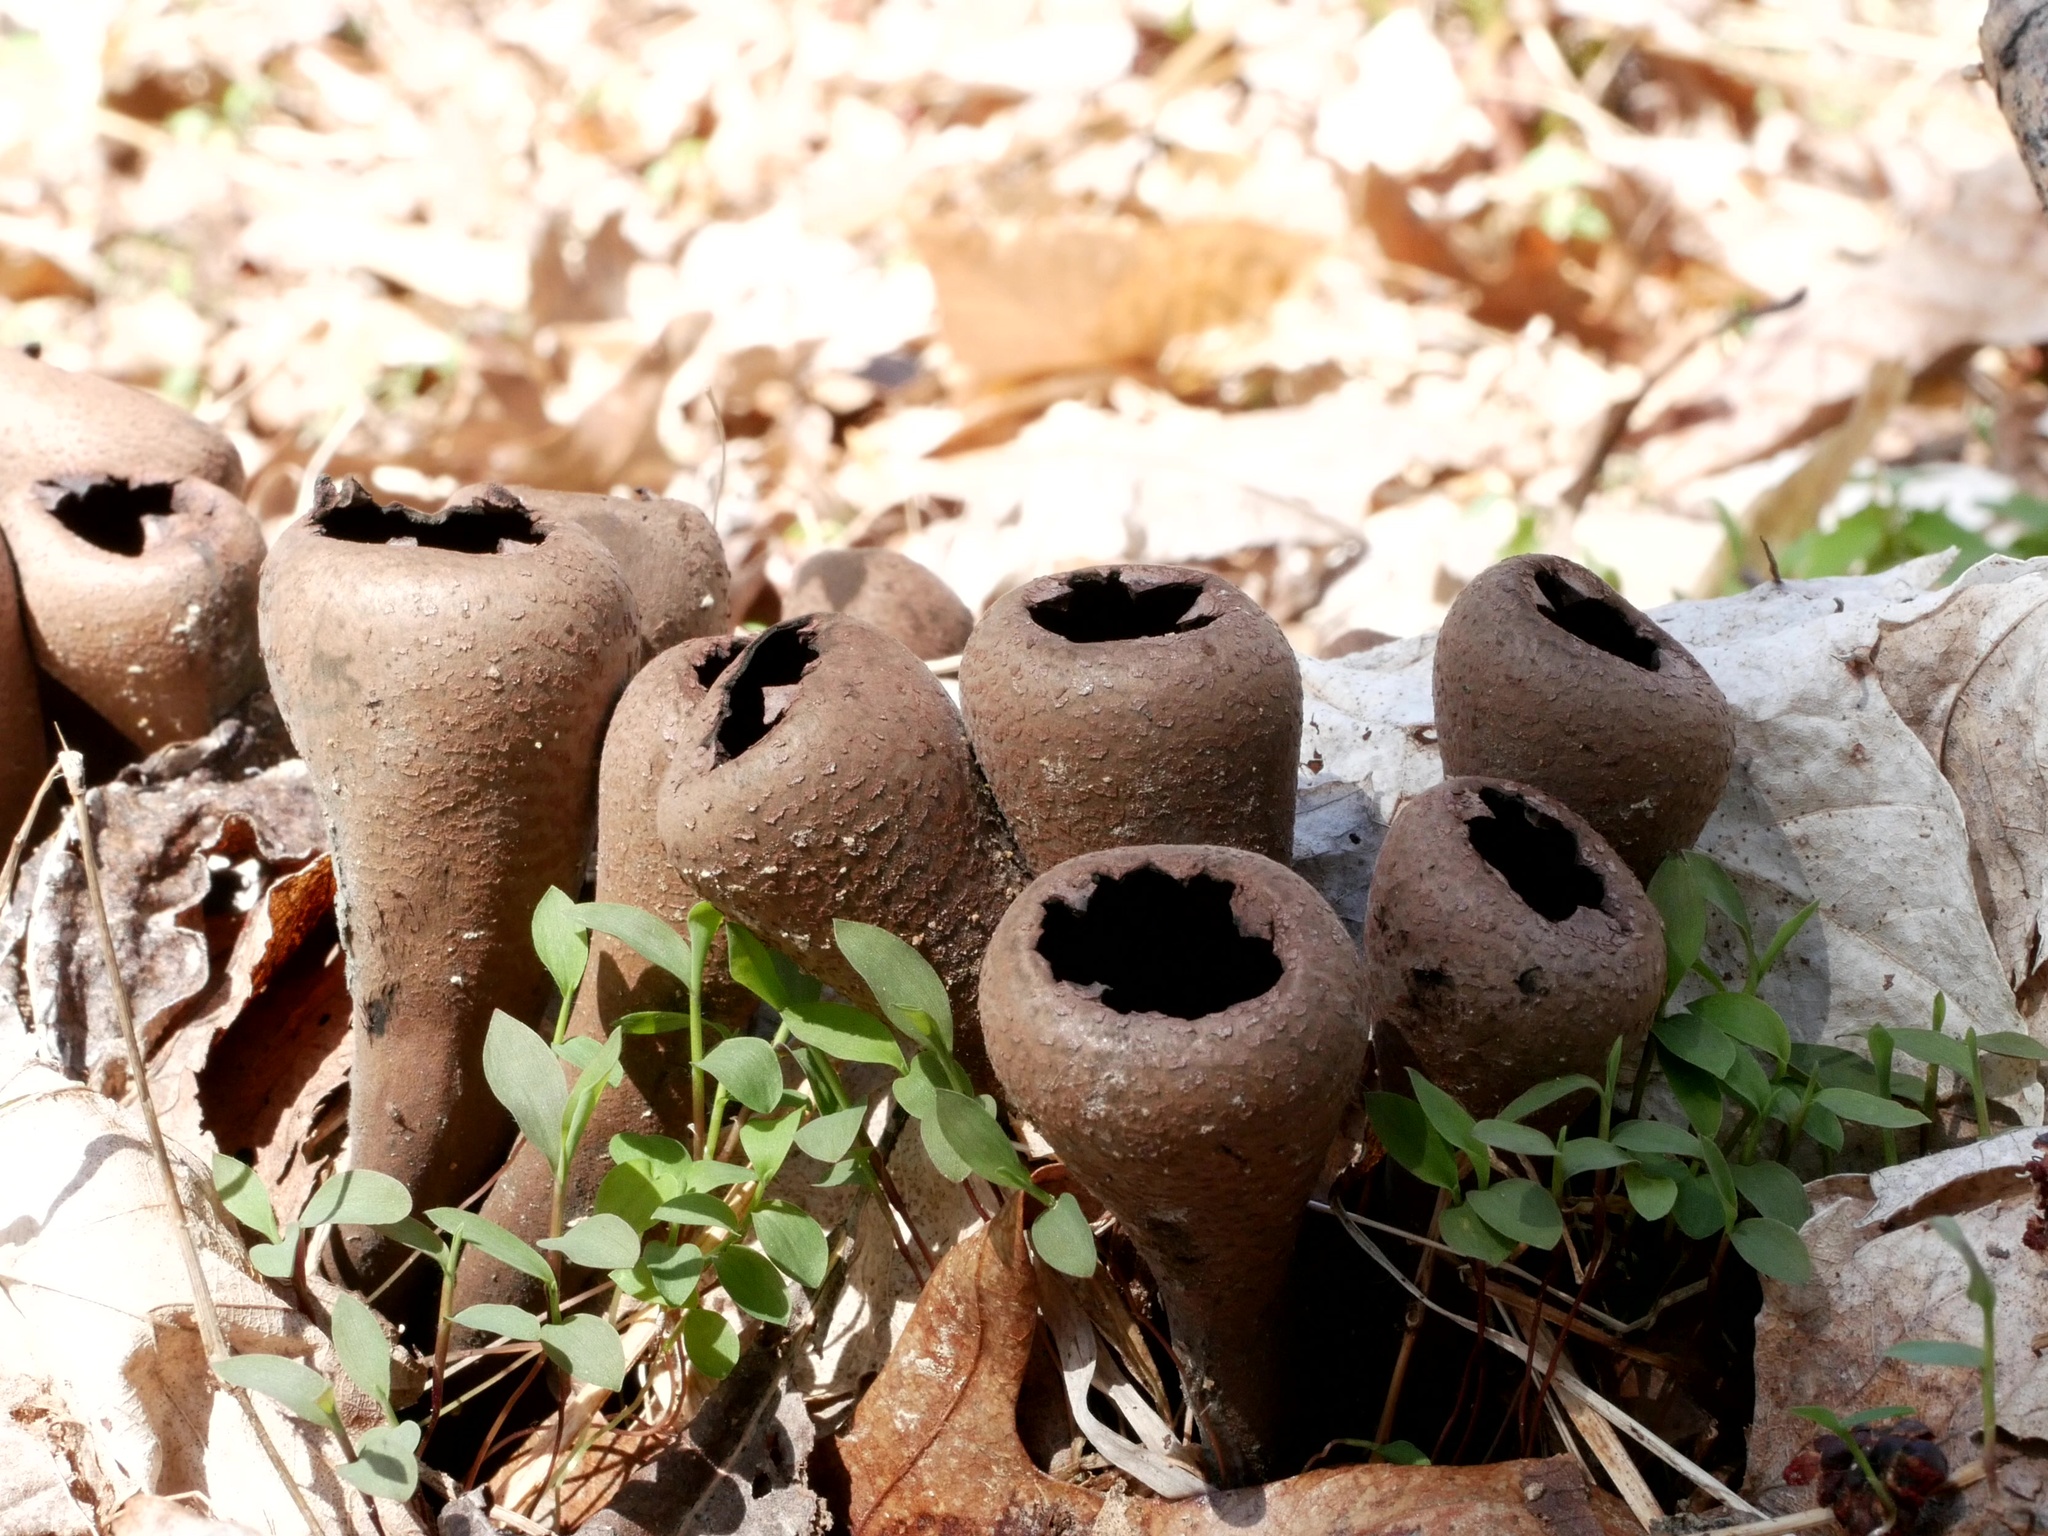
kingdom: Fungi
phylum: Ascomycota
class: Pezizomycetes
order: Pezizales
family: Sarcosomataceae
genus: Urnula
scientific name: Urnula craterium
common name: Devil's urn
